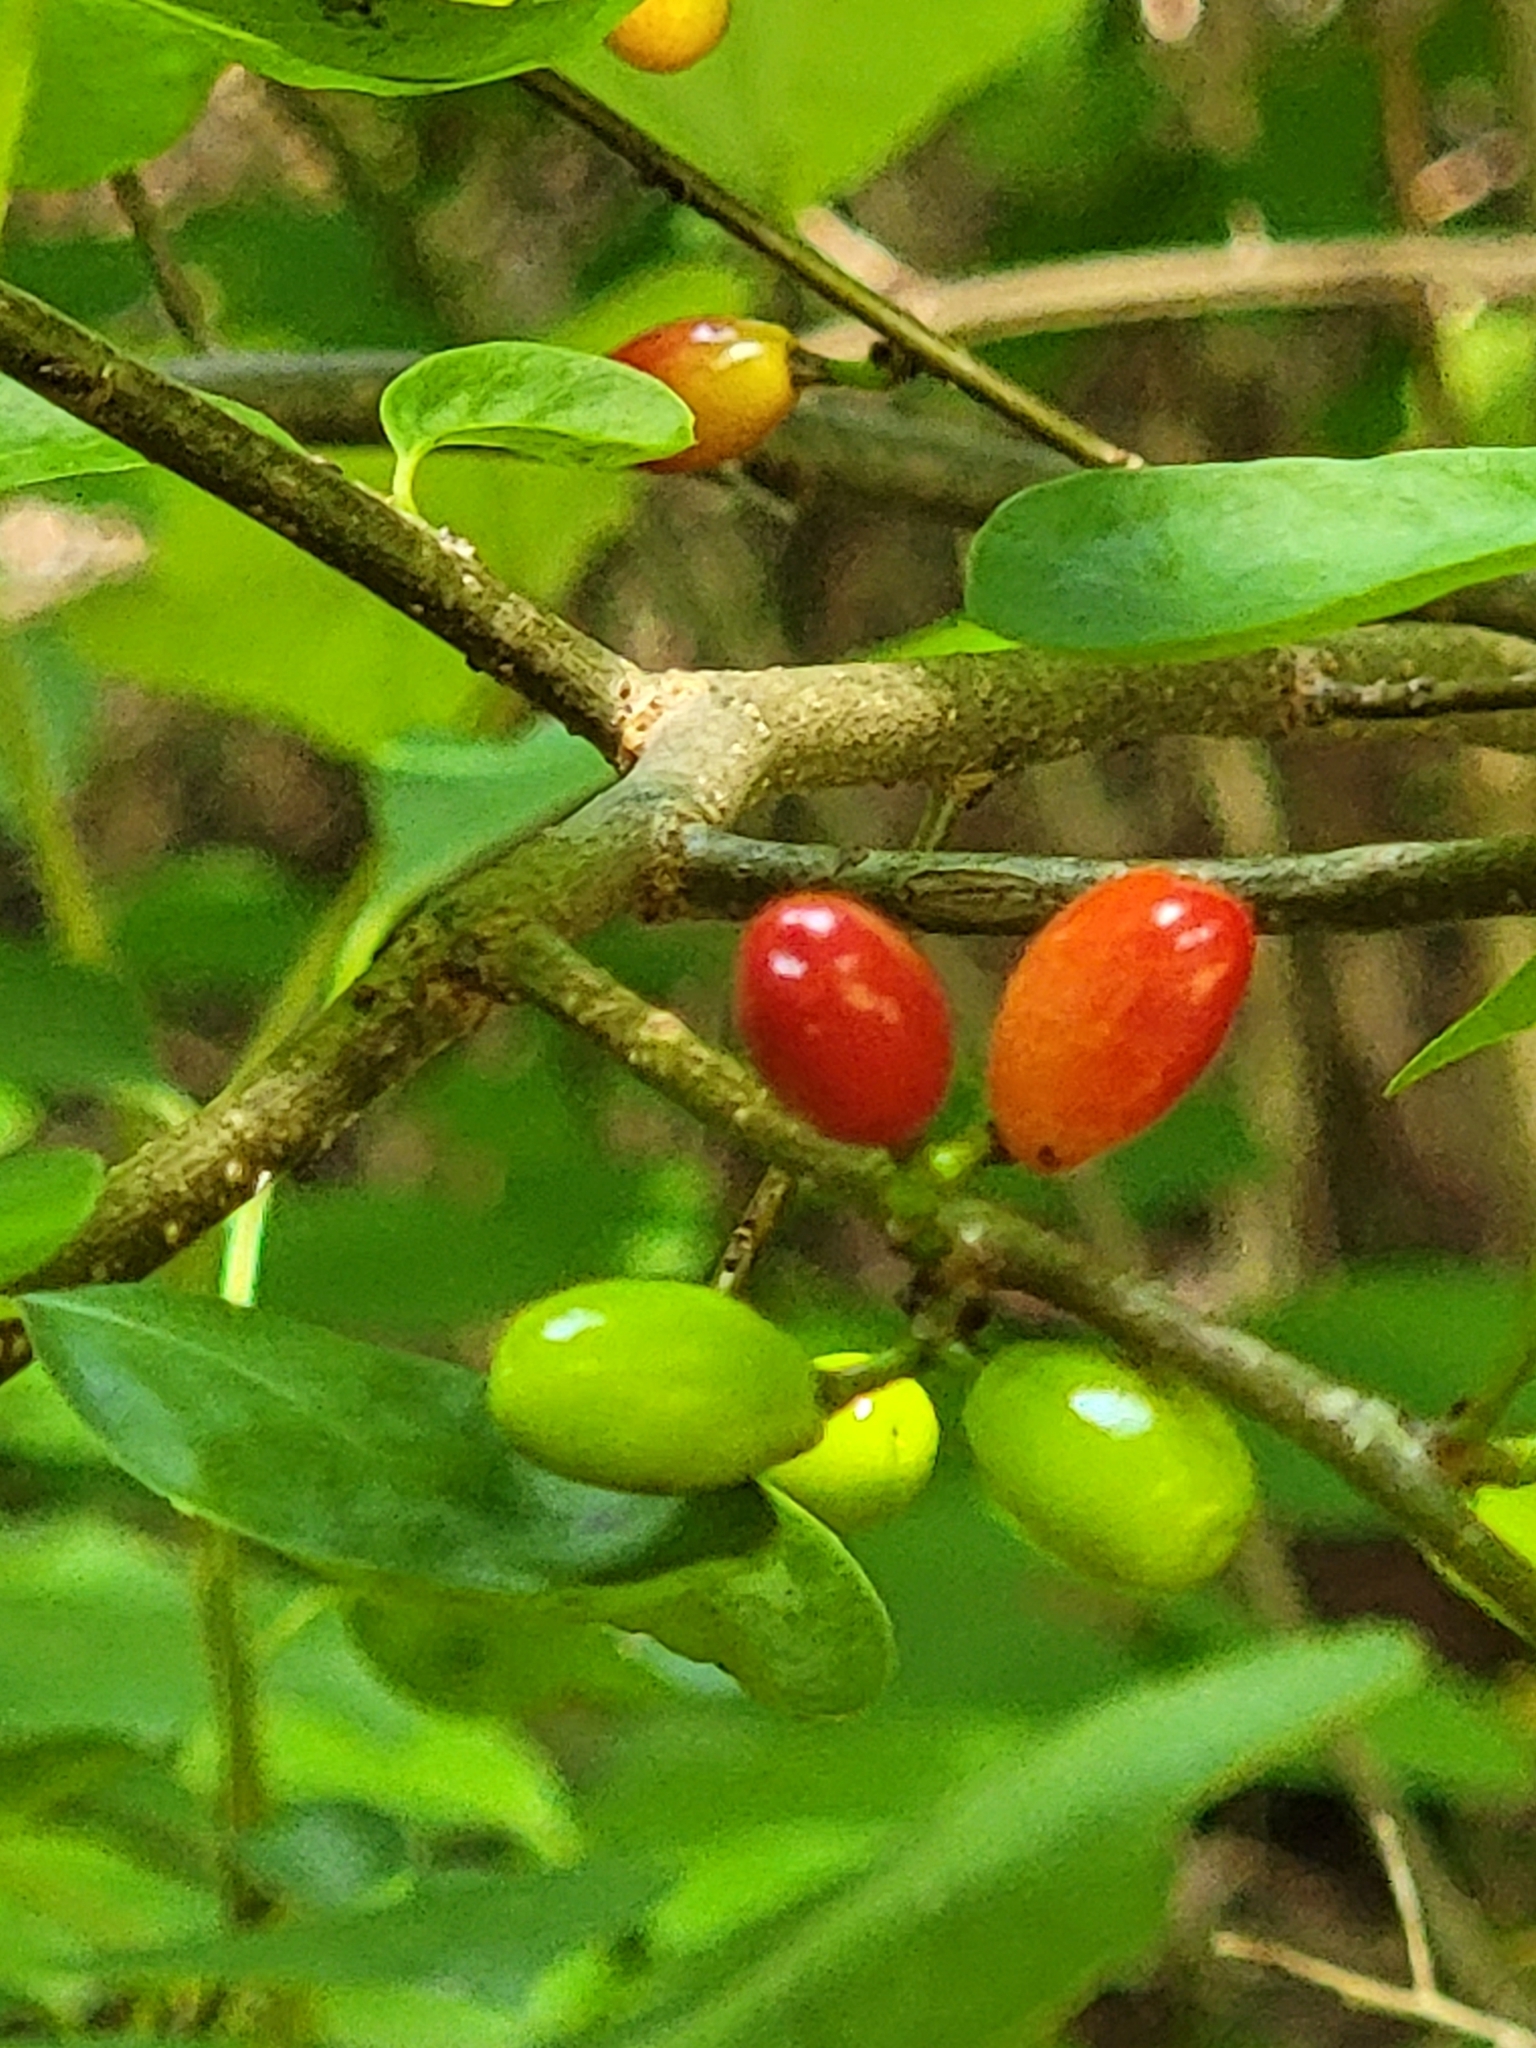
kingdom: Plantae
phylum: Tracheophyta
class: Magnoliopsida
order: Laurales
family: Lauraceae
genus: Lindera
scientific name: Lindera benzoin
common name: Spicebush
